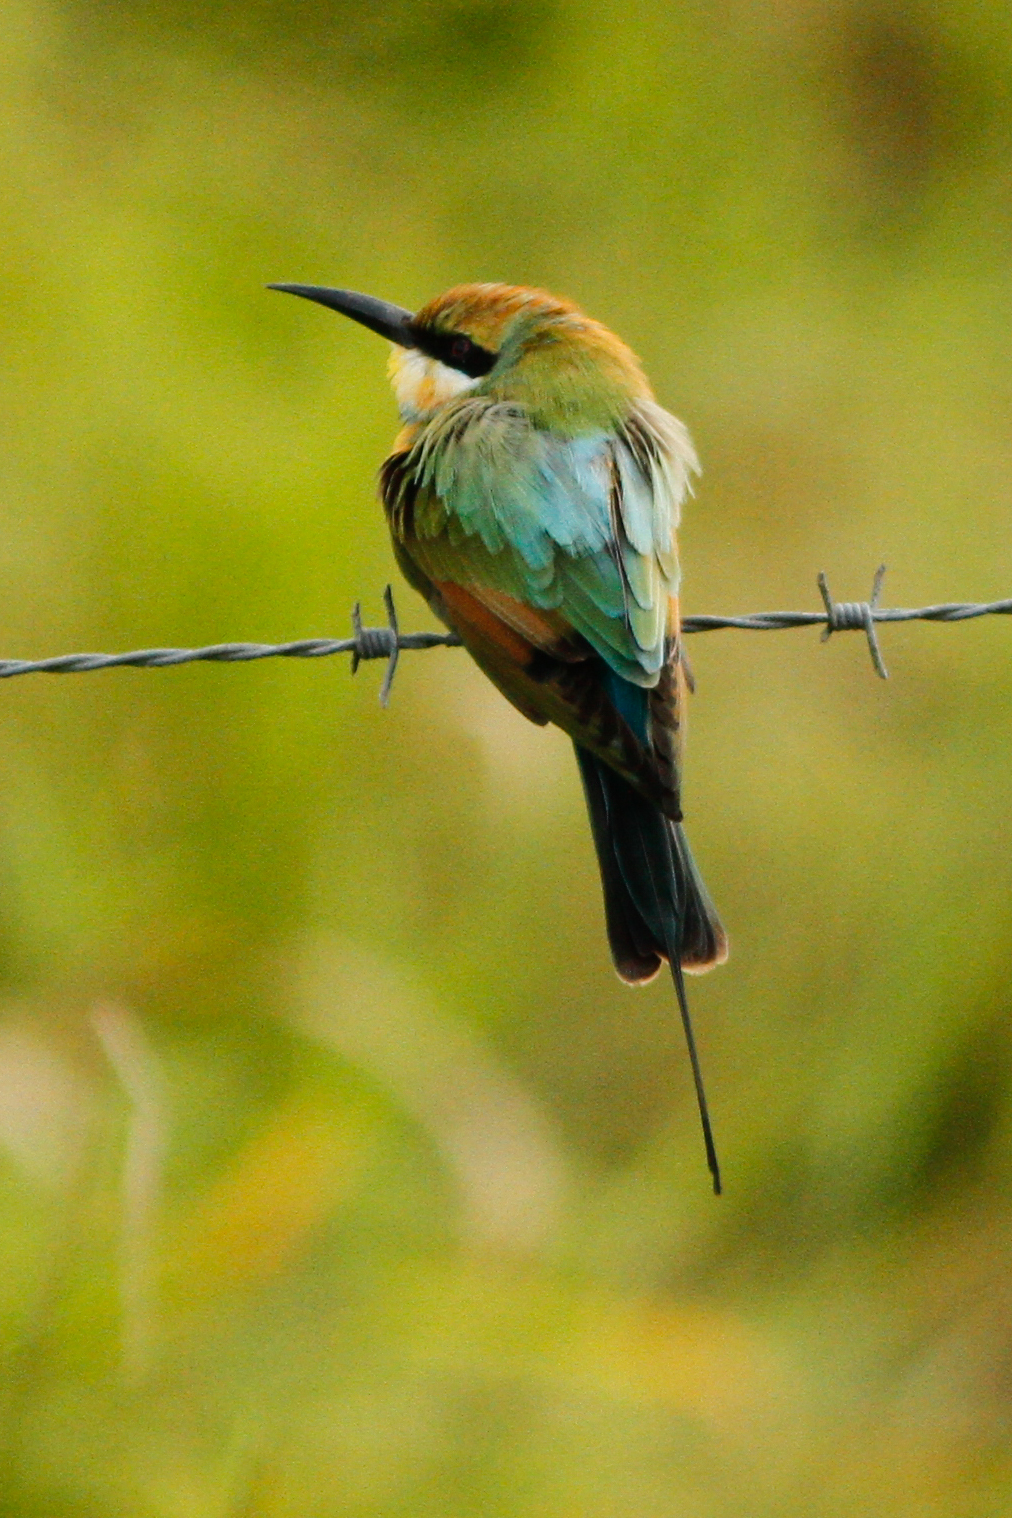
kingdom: Animalia
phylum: Chordata
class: Aves
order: Coraciiformes
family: Meropidae
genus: Merops
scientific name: Merops ornatus
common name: Rainbow bee-eater
